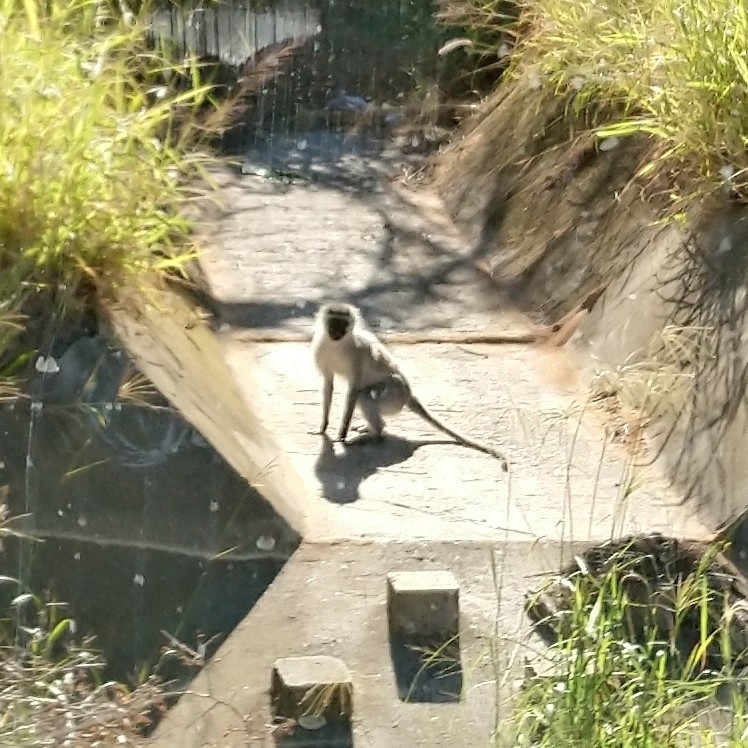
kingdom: Animalia
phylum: Chordata
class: Mammalia
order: Primates
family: Cercopithecidae
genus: Chlorocebus
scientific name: Chlorocebus pygerythrus
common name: Vervet monkey
